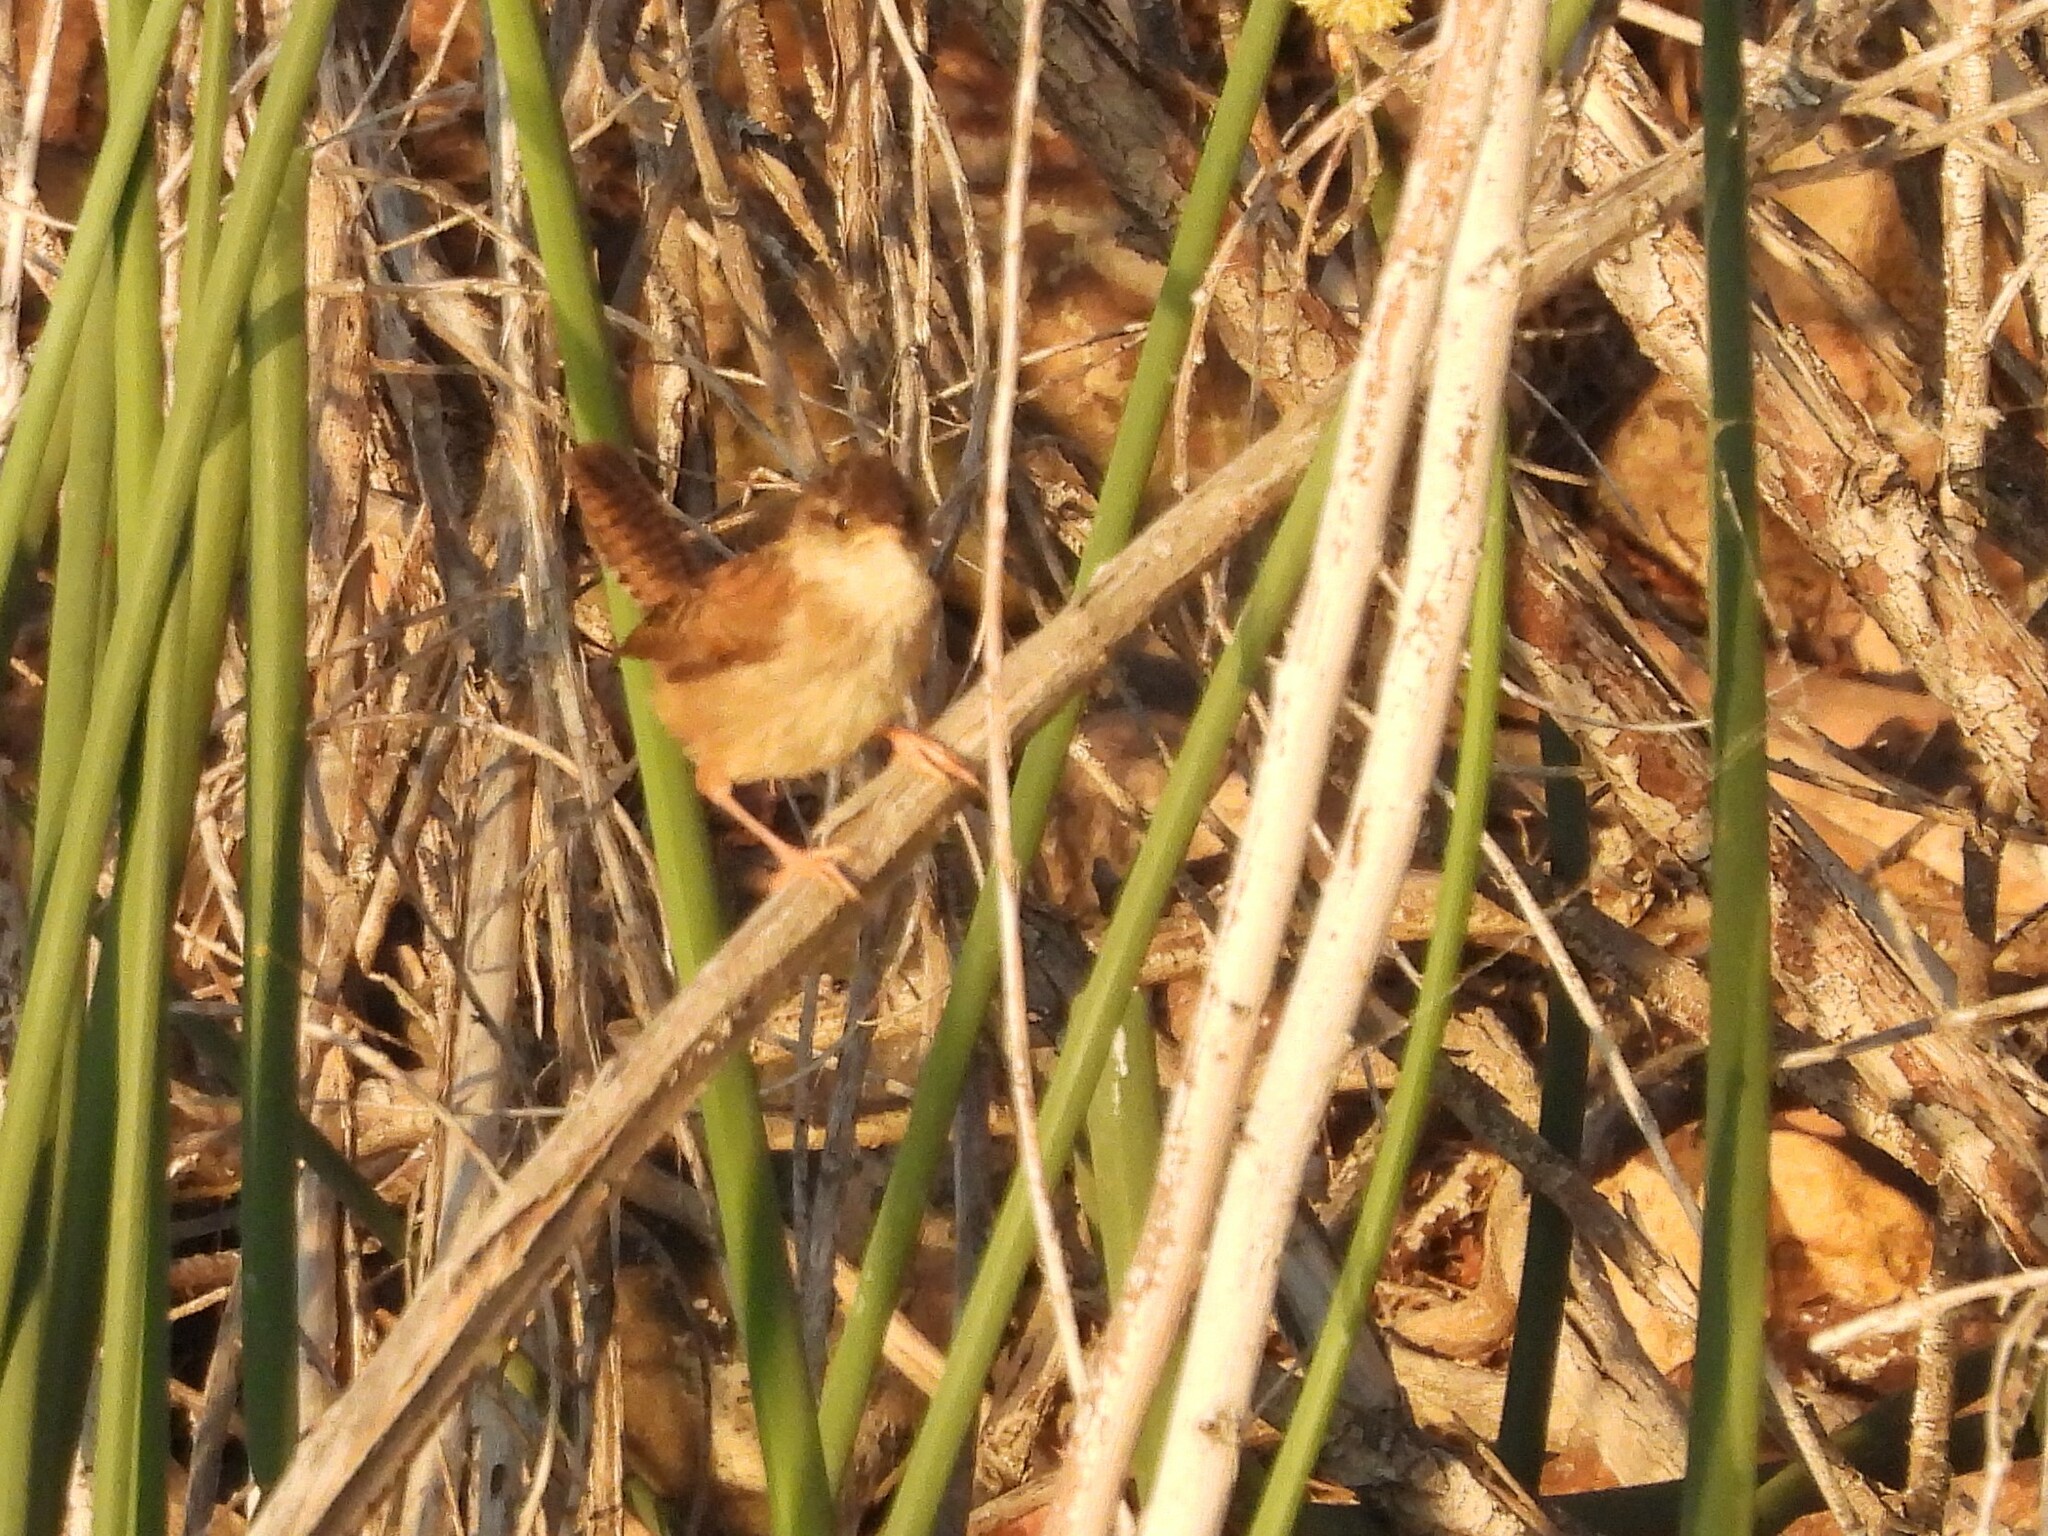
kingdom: Animalia
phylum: Chordata
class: Aves
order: Passeriformes
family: Troglodytidae
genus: Cistothorus
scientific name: Cistothorus palustris
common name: Marsh wren
